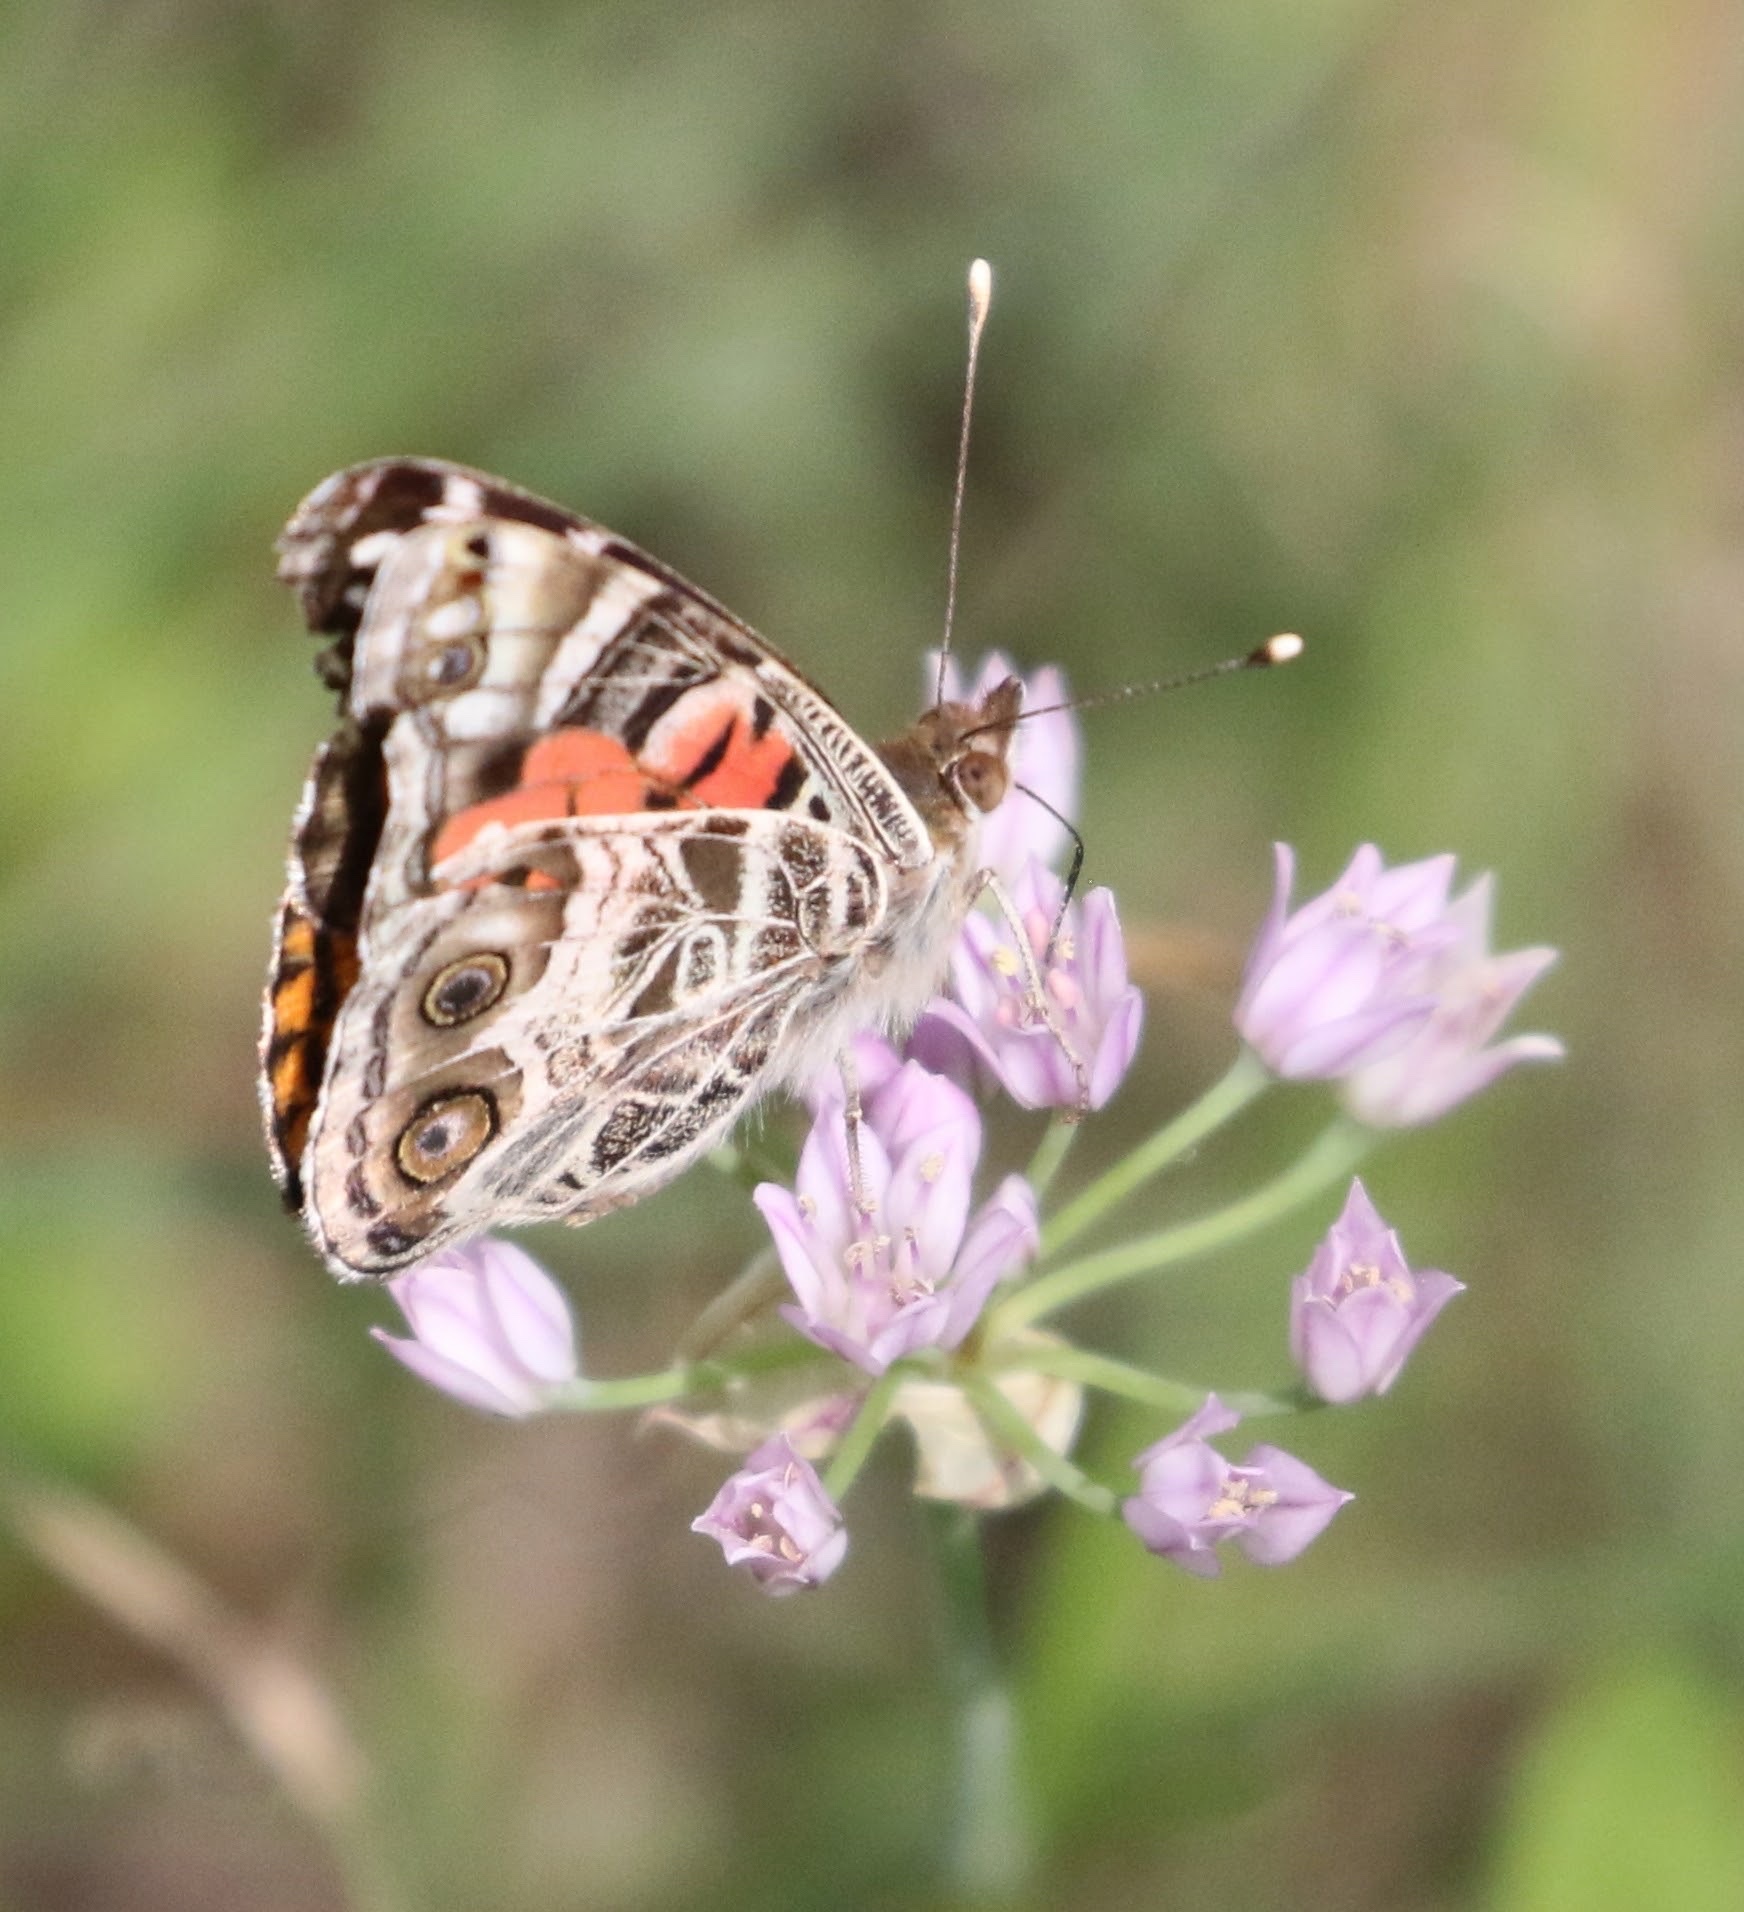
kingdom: Animalia
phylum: Arthropoda
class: Insecta
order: Lepidoptera
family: Nymphalidae
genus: Vanessa
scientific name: Vanessa virginiensis
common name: American lady
